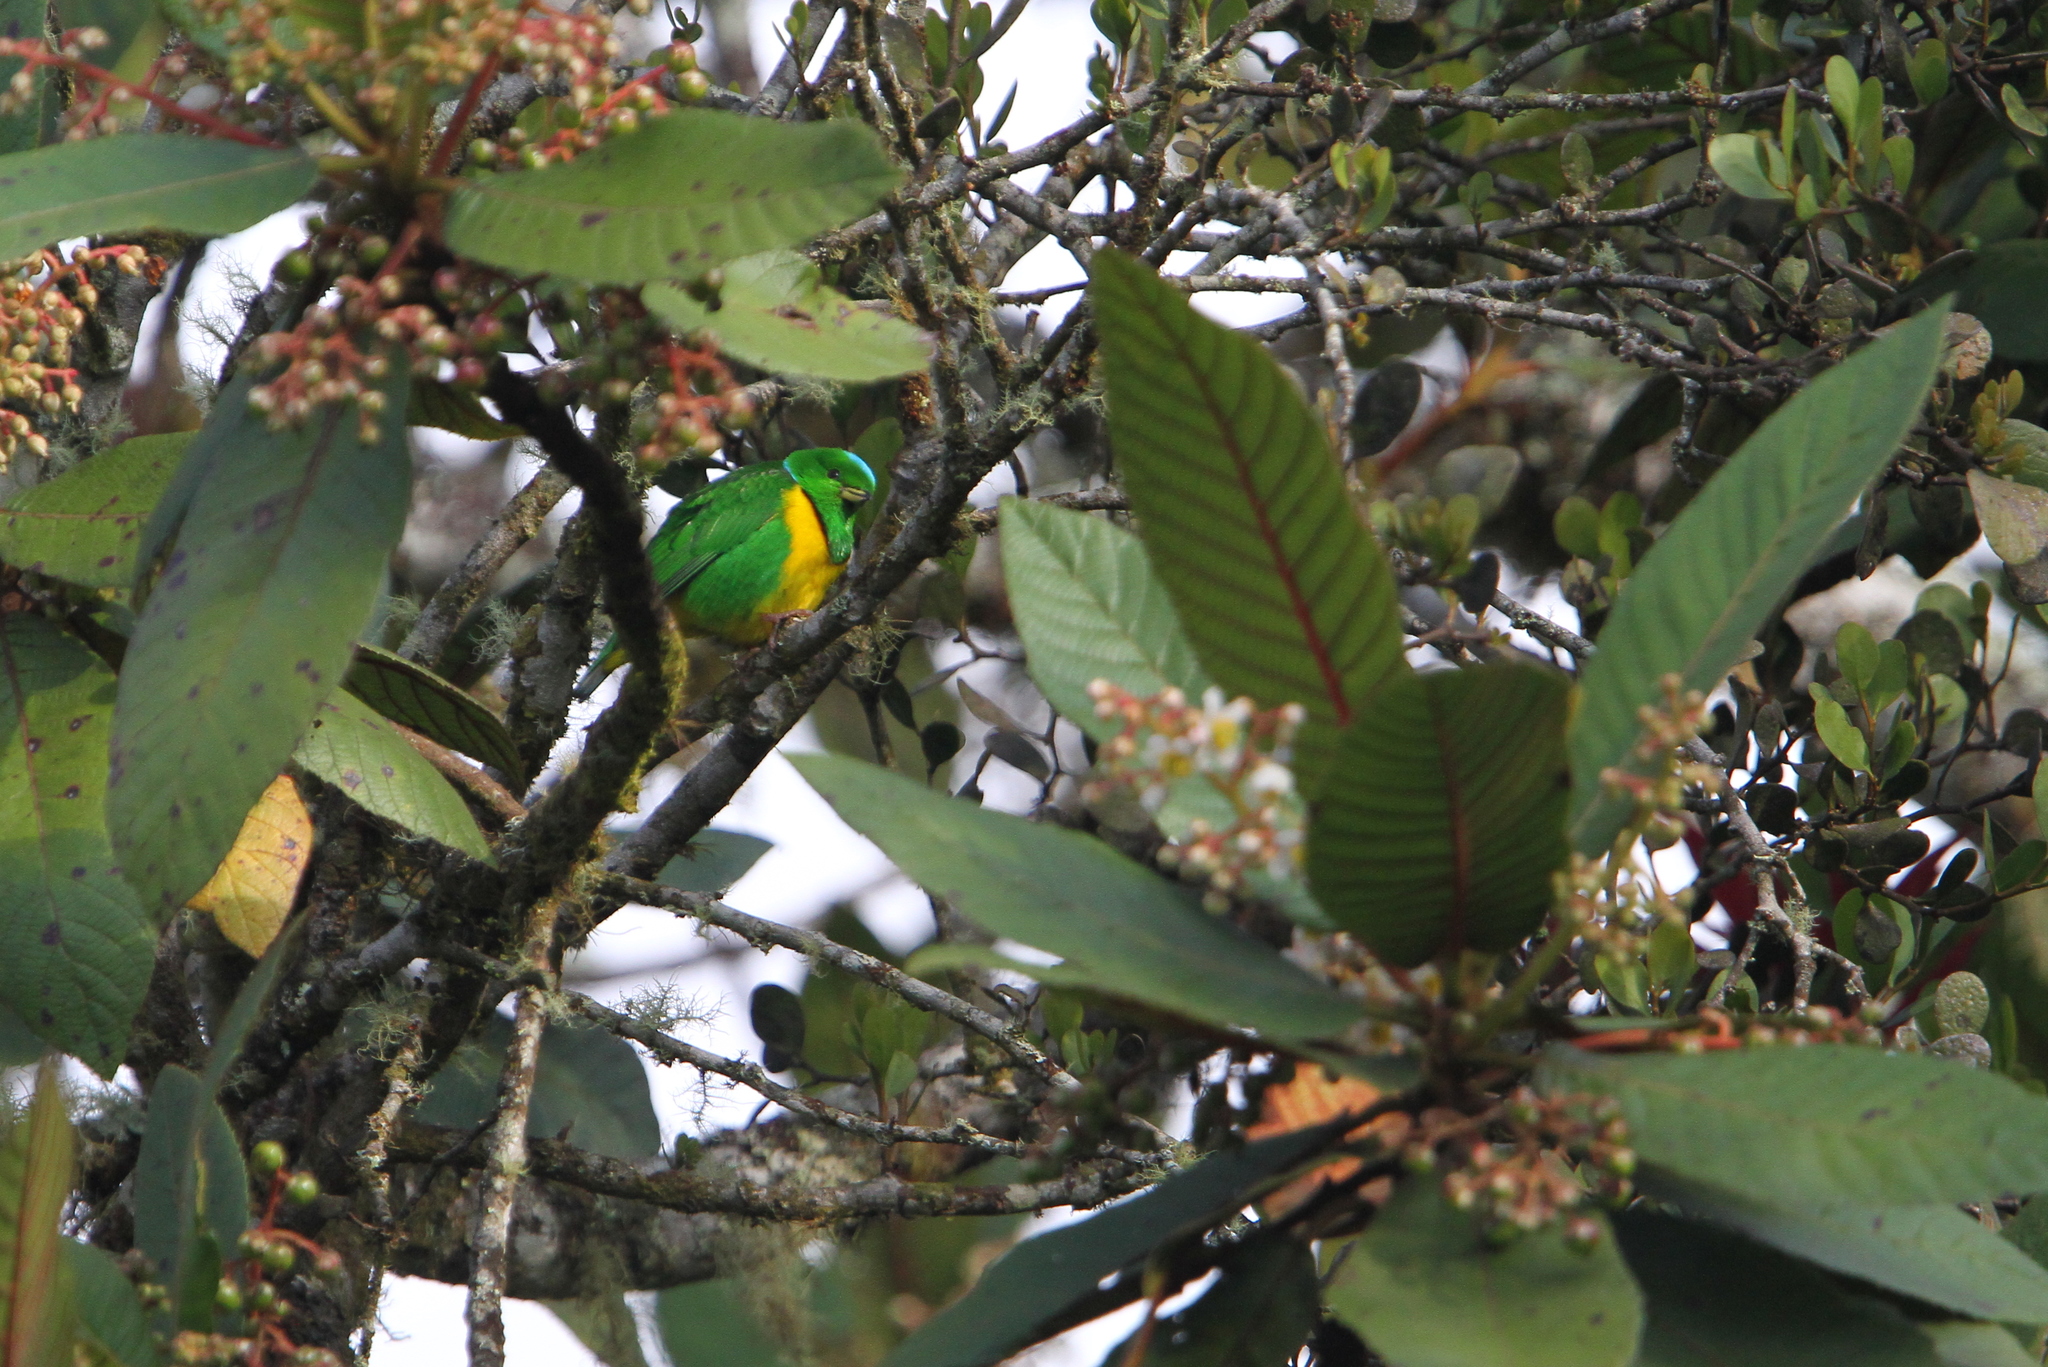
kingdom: Animalia
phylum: Chordata
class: Aves
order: Passeriformes
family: Fringillidae
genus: Chlorophonia
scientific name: Chlorophonia occipitalis
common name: Blue-crowned chlorophonia
